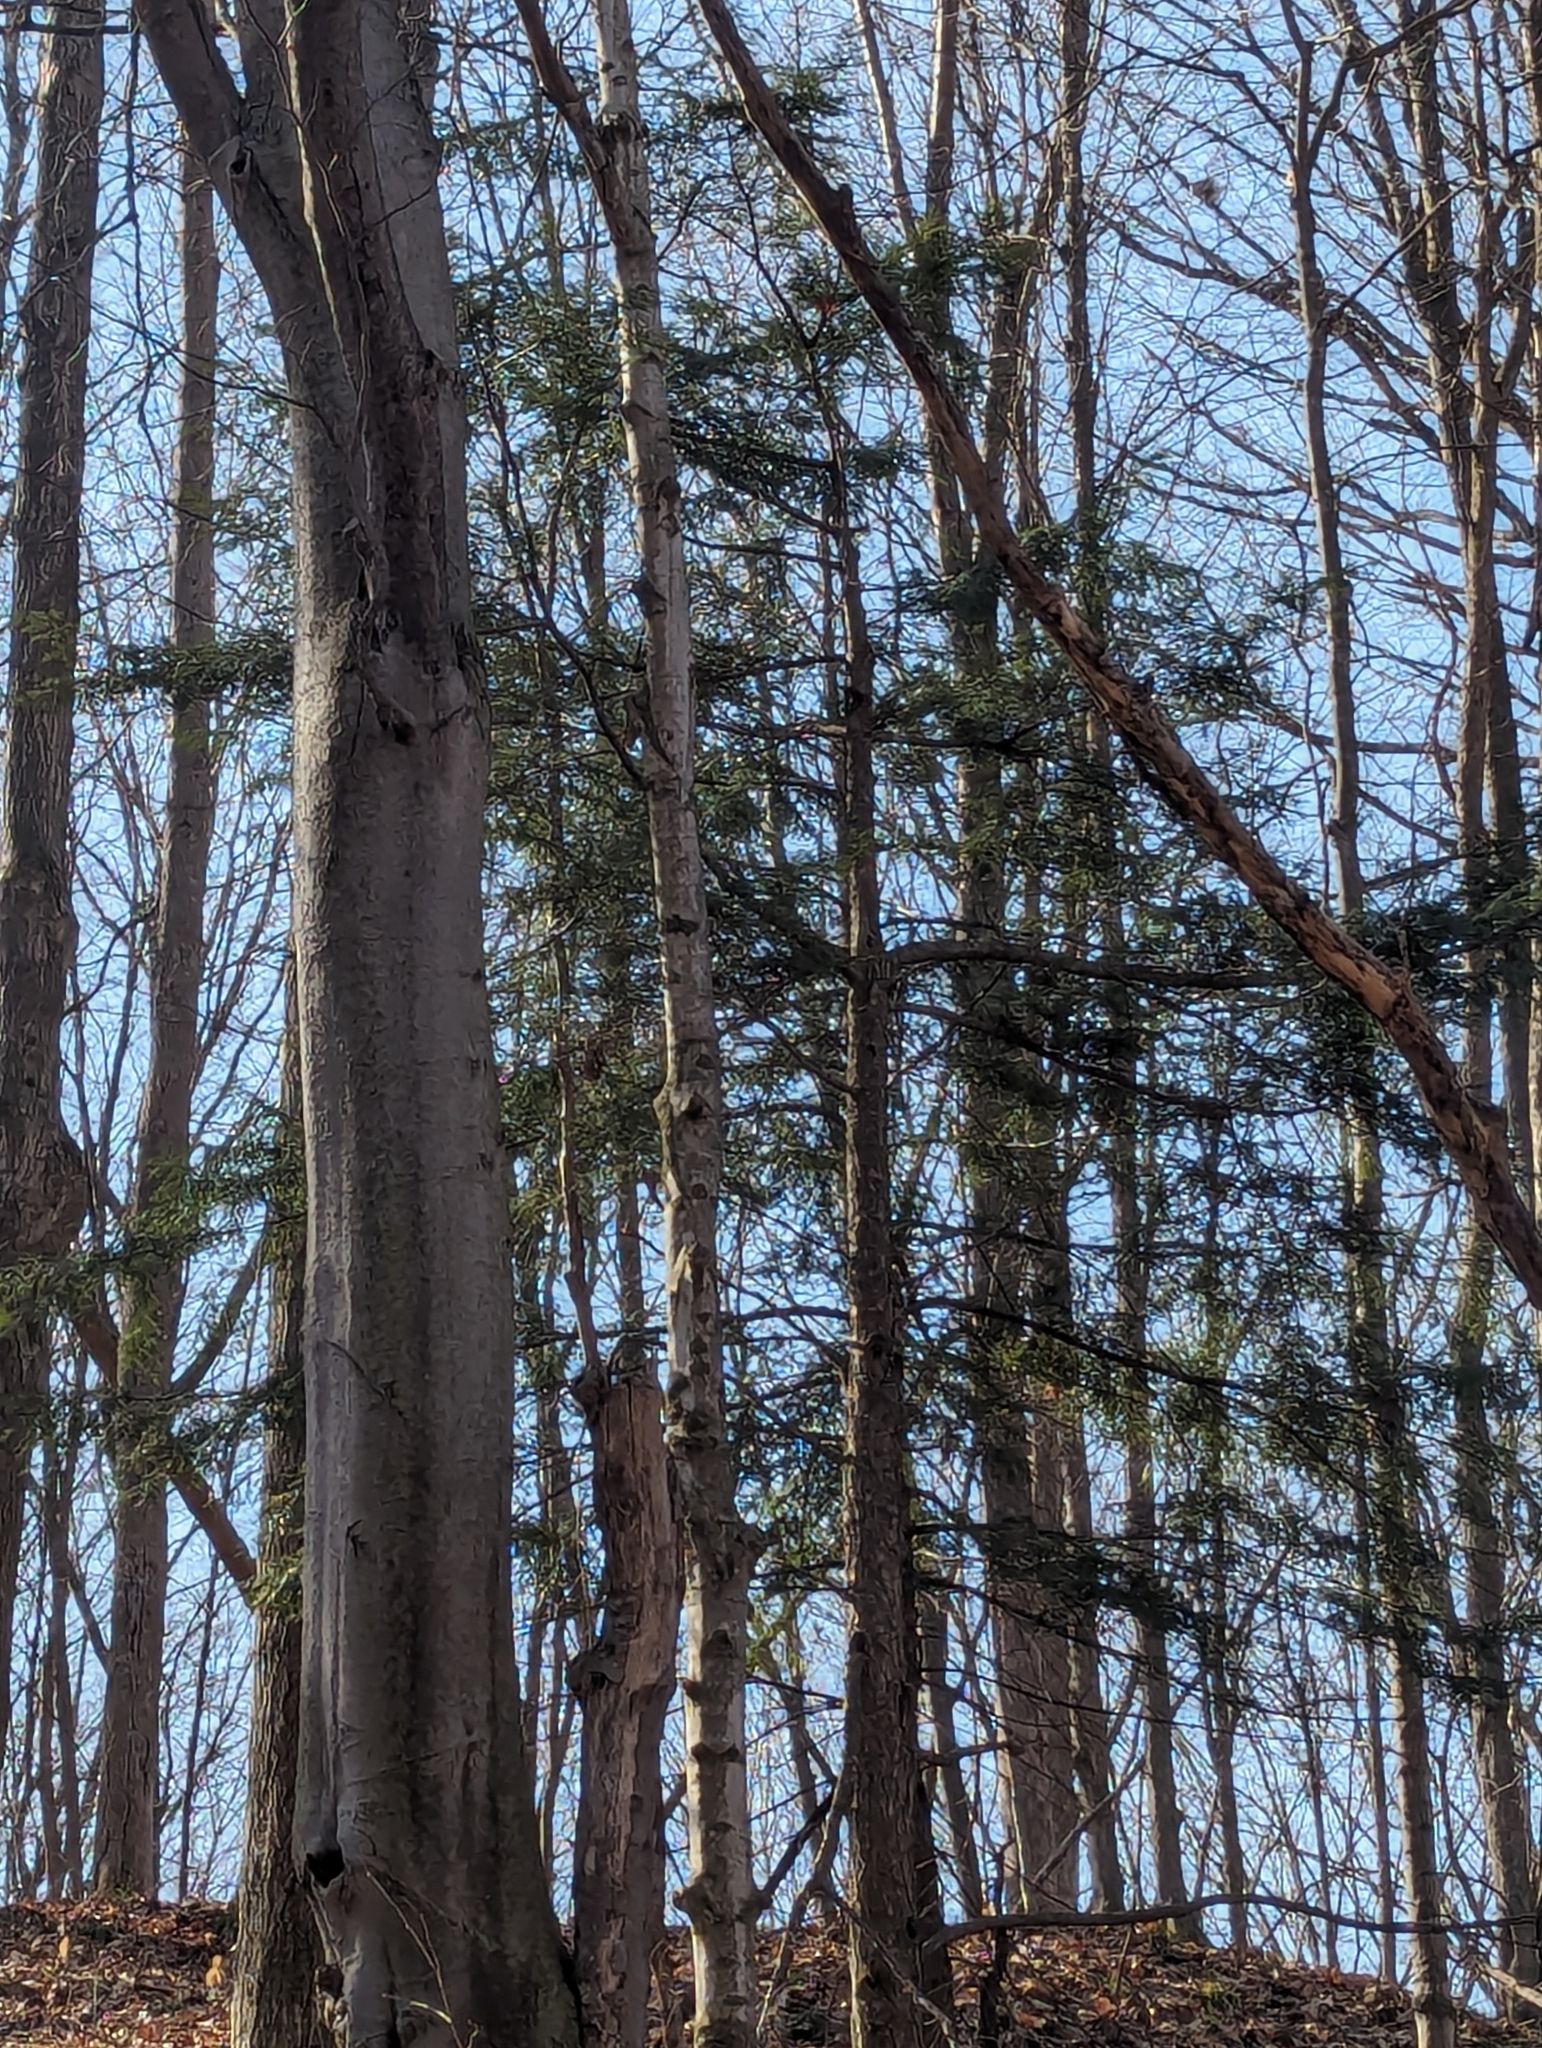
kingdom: Plantae
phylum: Tracheophyta
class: Pinopsida
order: Pinales
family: Pinaceae
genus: Tsuga
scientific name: Tsuga canadensis
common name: Eastern hemlock
